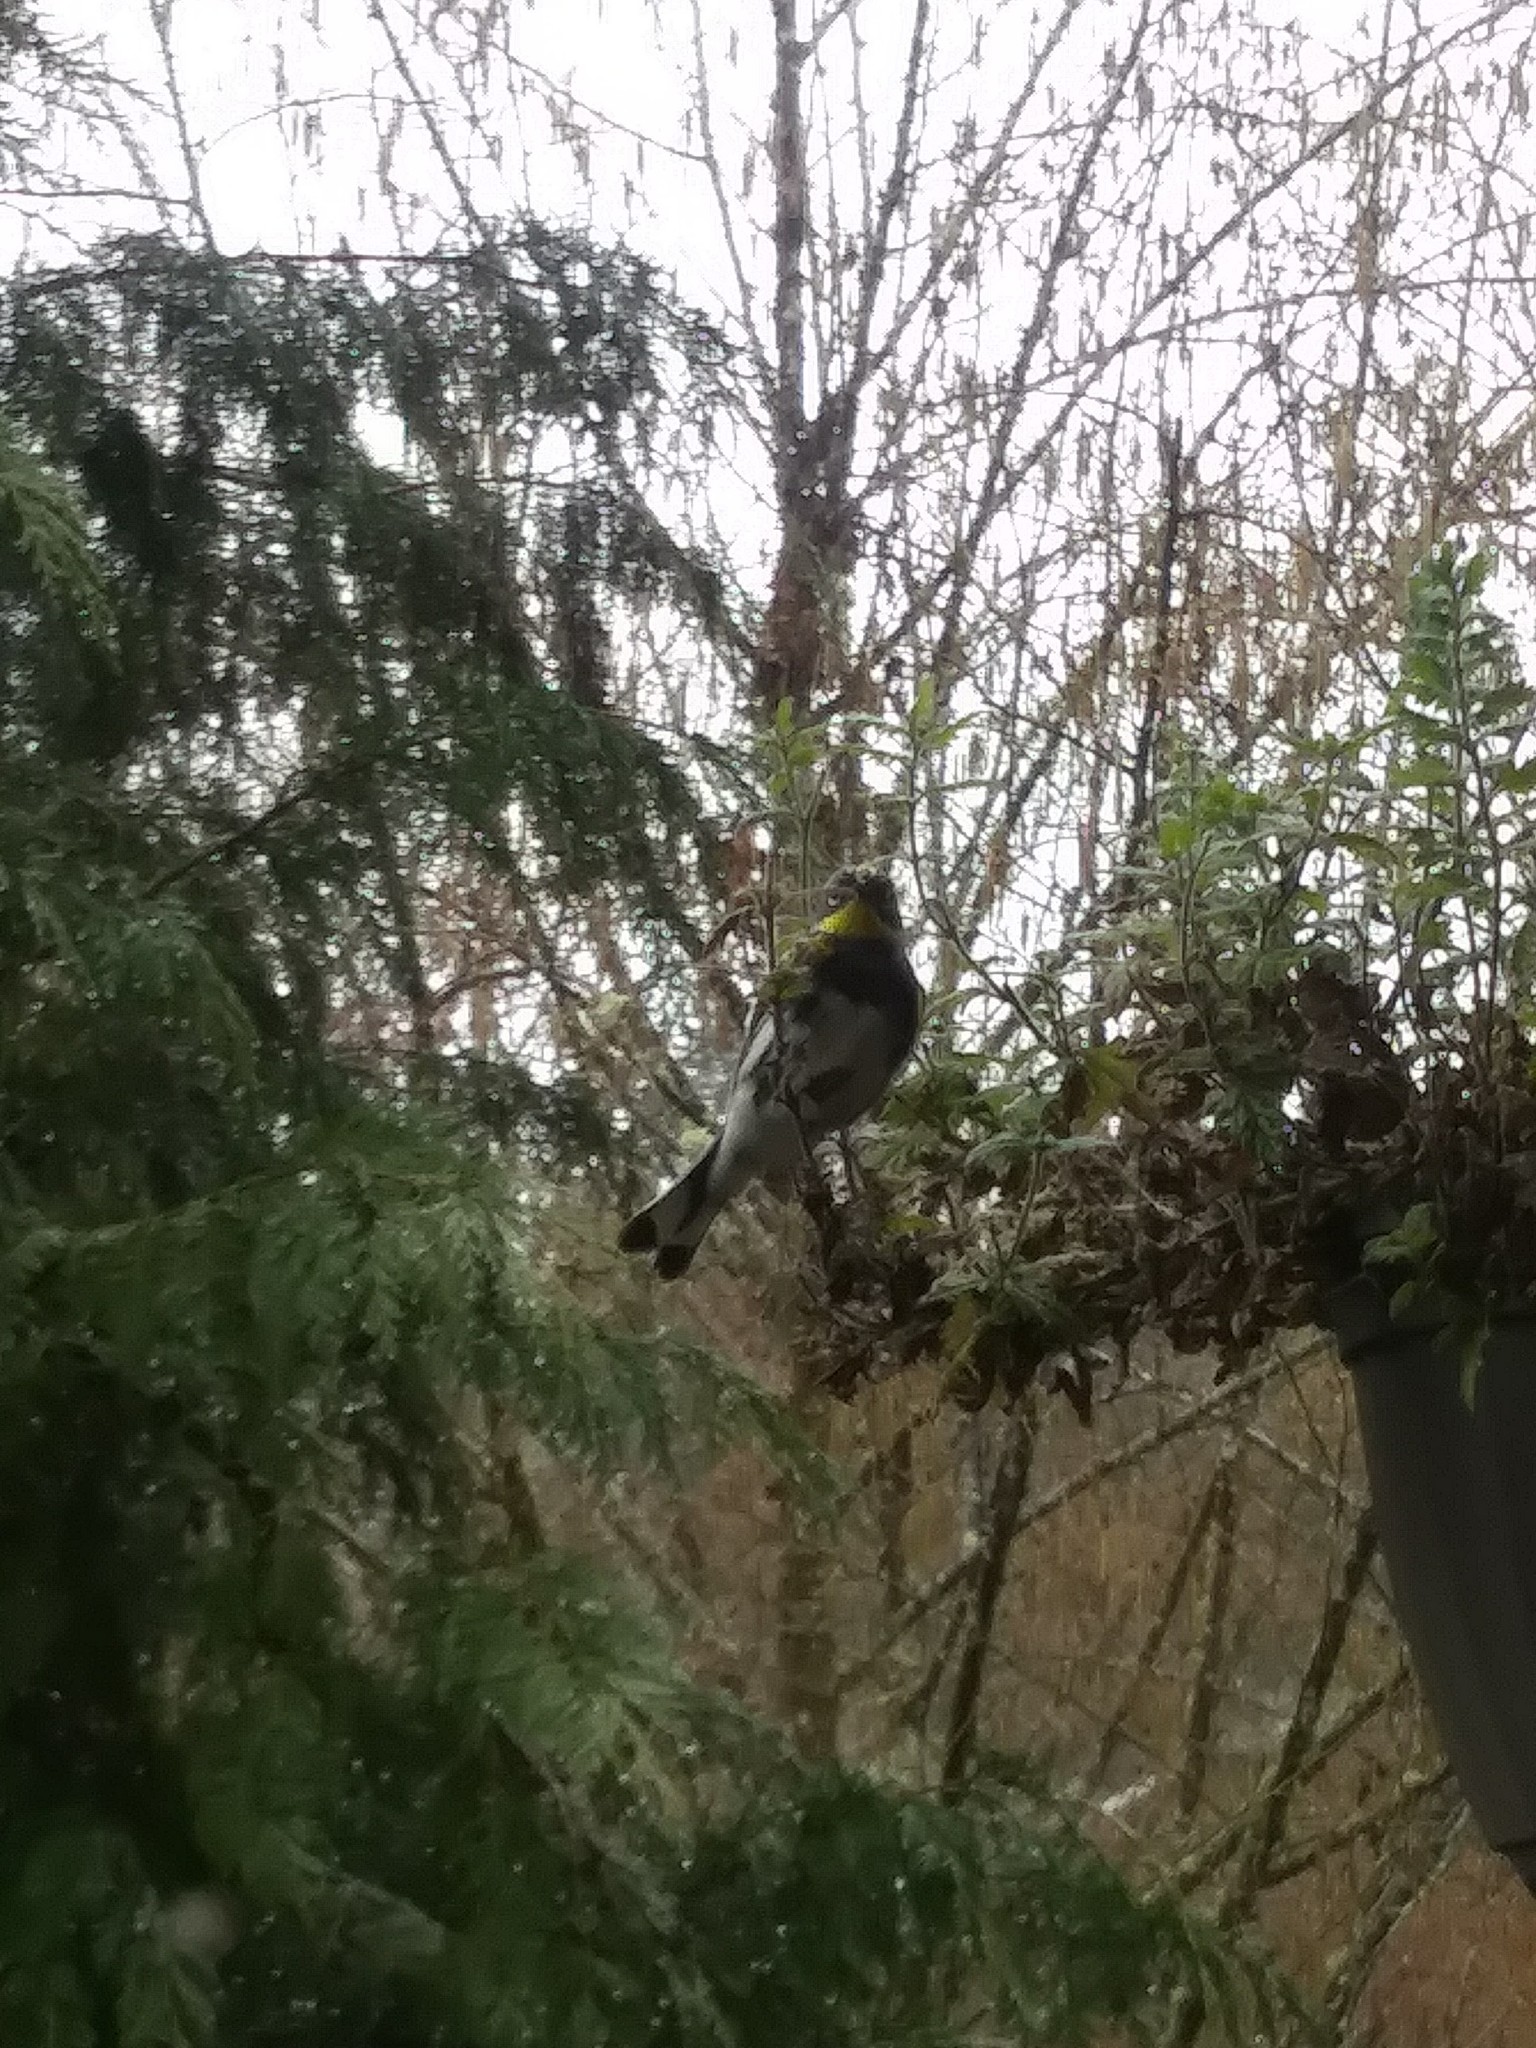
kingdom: Animalia
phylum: Chordata
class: Aves
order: Passeriformes
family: Parulidae
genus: Setophaga
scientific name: Setophaga coronata
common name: Myrtle warbler
